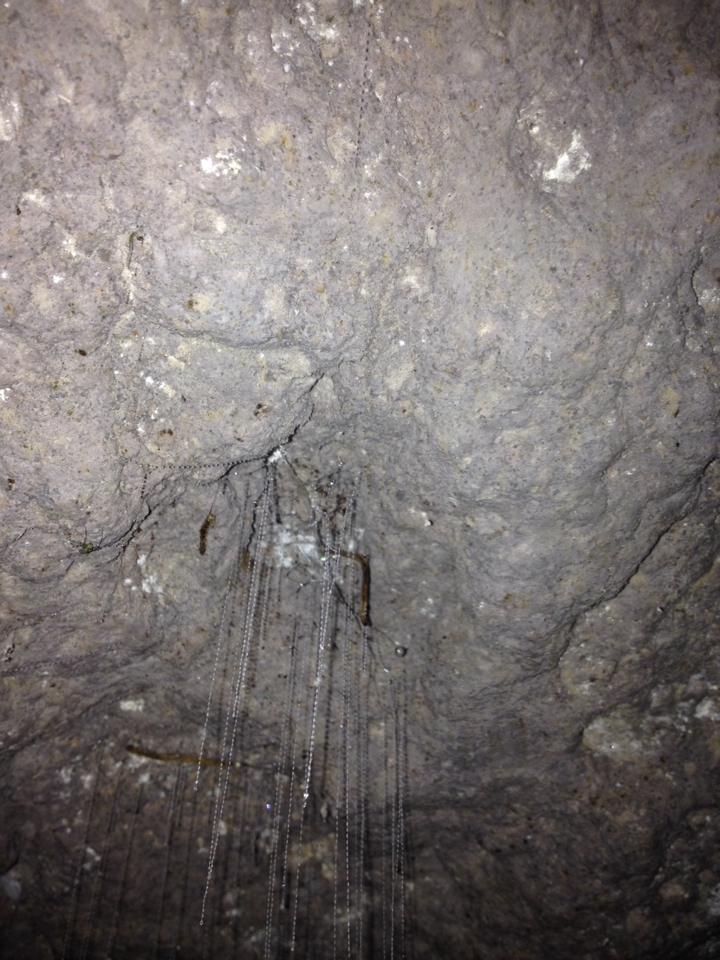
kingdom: Animalia
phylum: Arthropoda
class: Insecta
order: Diptera
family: Keroplatidae
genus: Arachnocampa
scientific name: Arachnocampa luminosa
